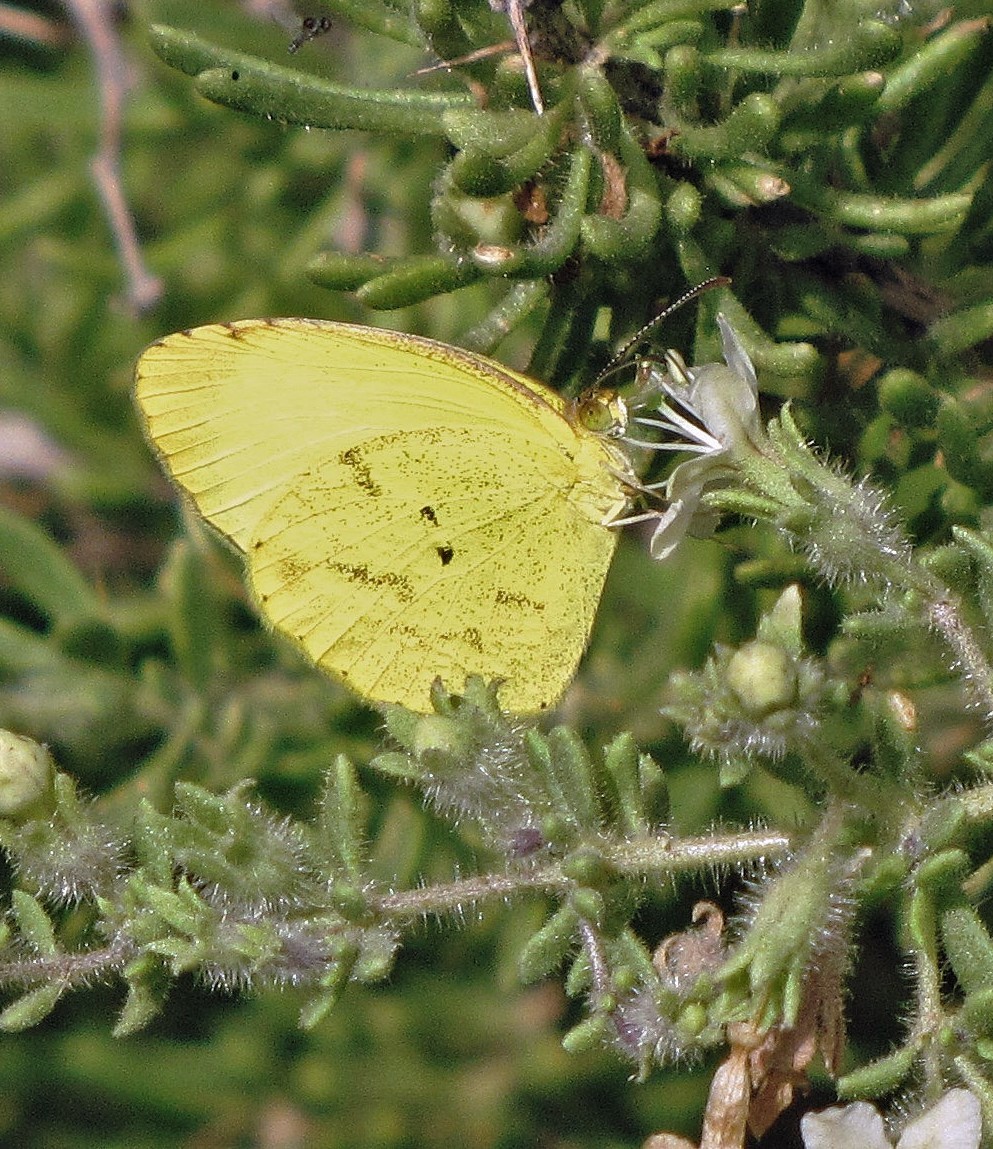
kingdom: Animalia
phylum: Arthropoda
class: Insecta
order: Lepidoptera
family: Pieridae
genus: Pyrisitia
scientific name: Pyrisitia nise
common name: Mimosa yellow
